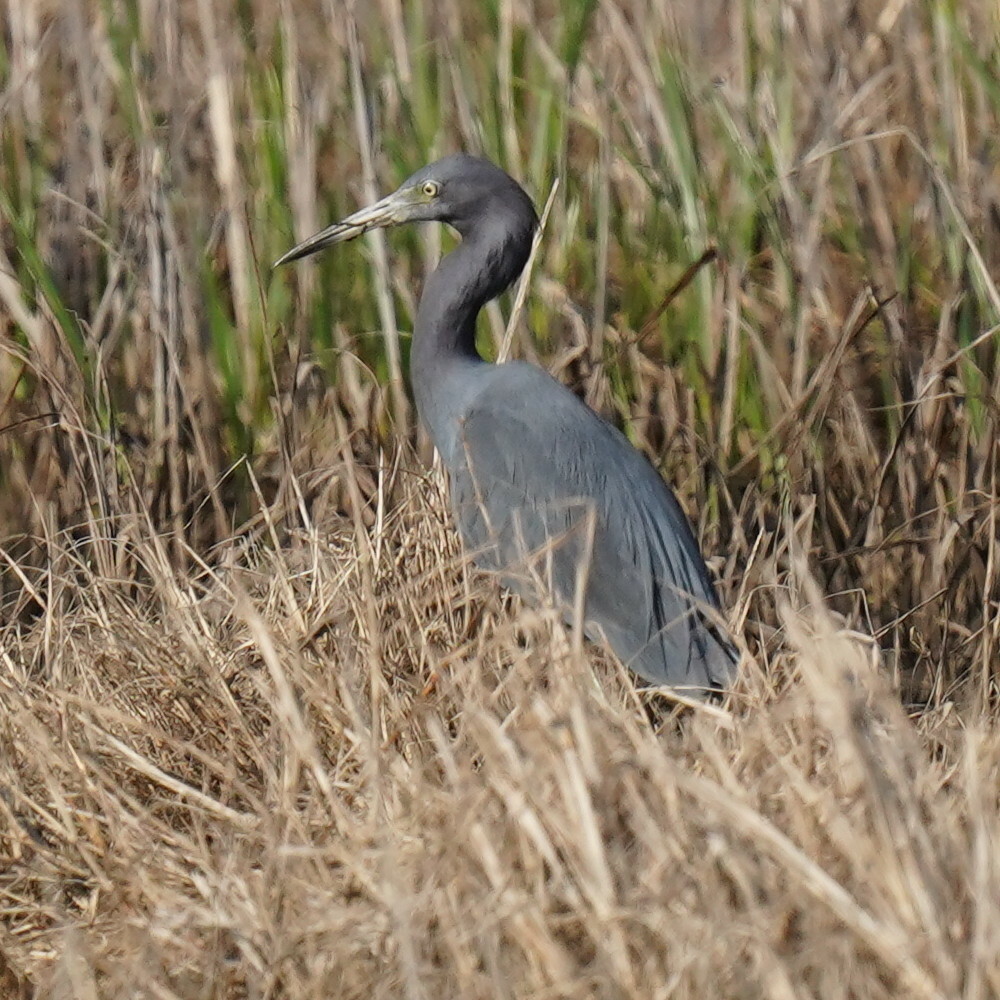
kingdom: Animalia
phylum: Chordata
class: Aves
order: Pelecaniformes
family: Ardeidae
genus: Egretta
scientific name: Egretta caerulea
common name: Little blue heron
